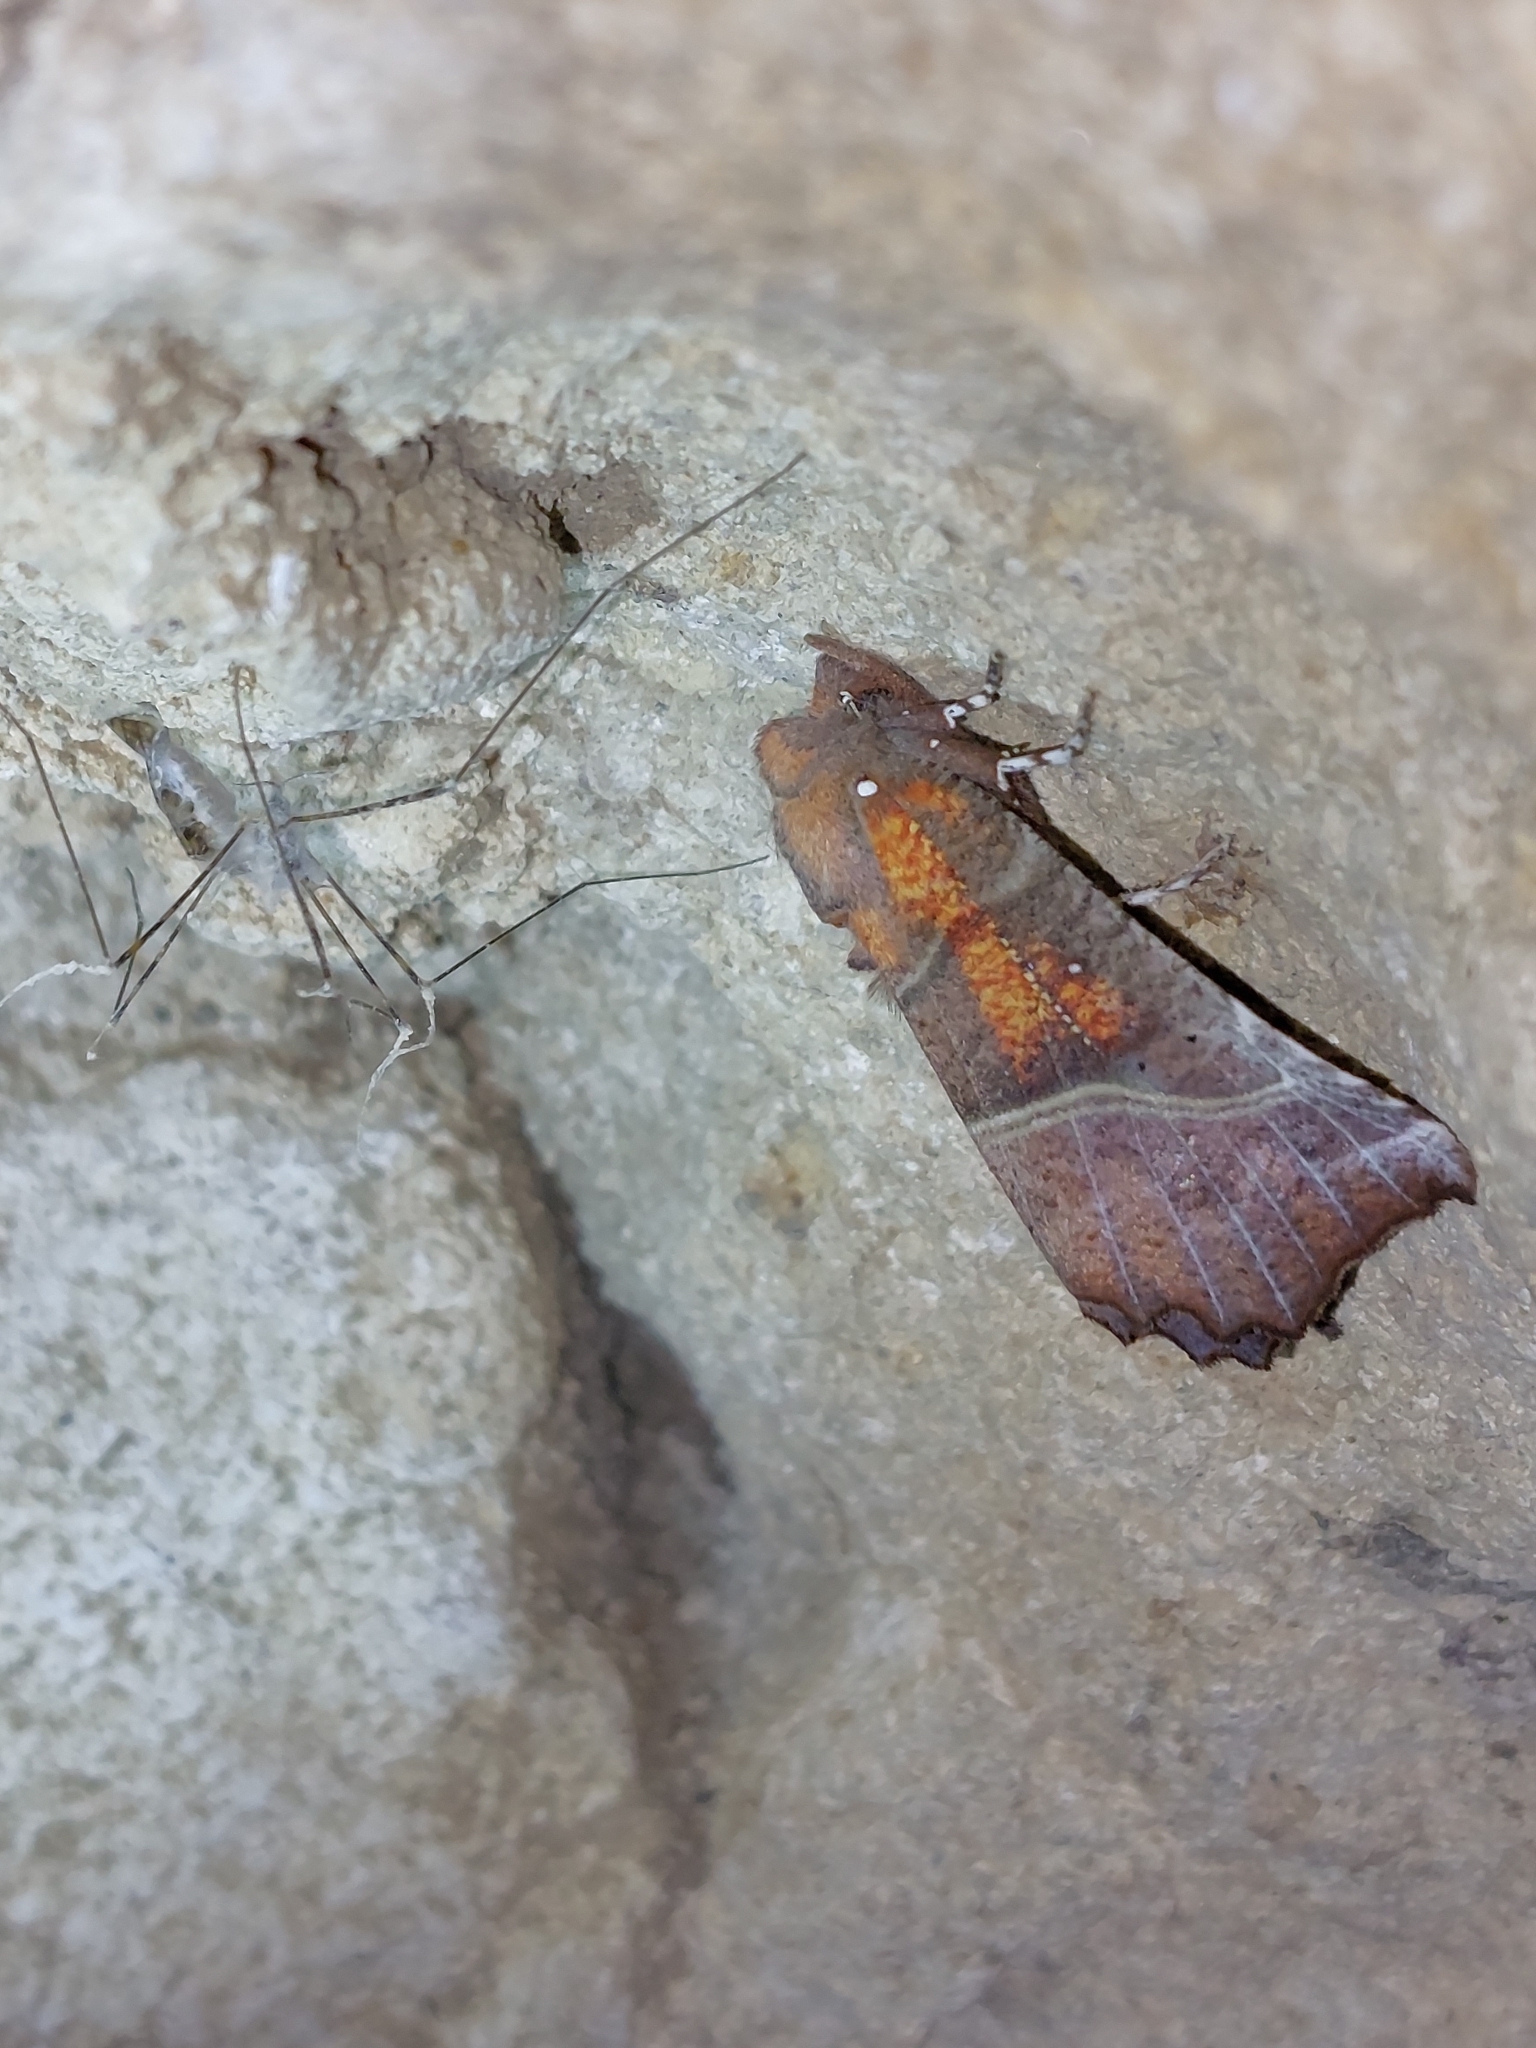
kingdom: Animalia
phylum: Arthropoda
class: Insecta
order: Lepidoptera
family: Erebidae
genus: Scoliopteryx
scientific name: Scoliopteryx libatrix
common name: Herald
